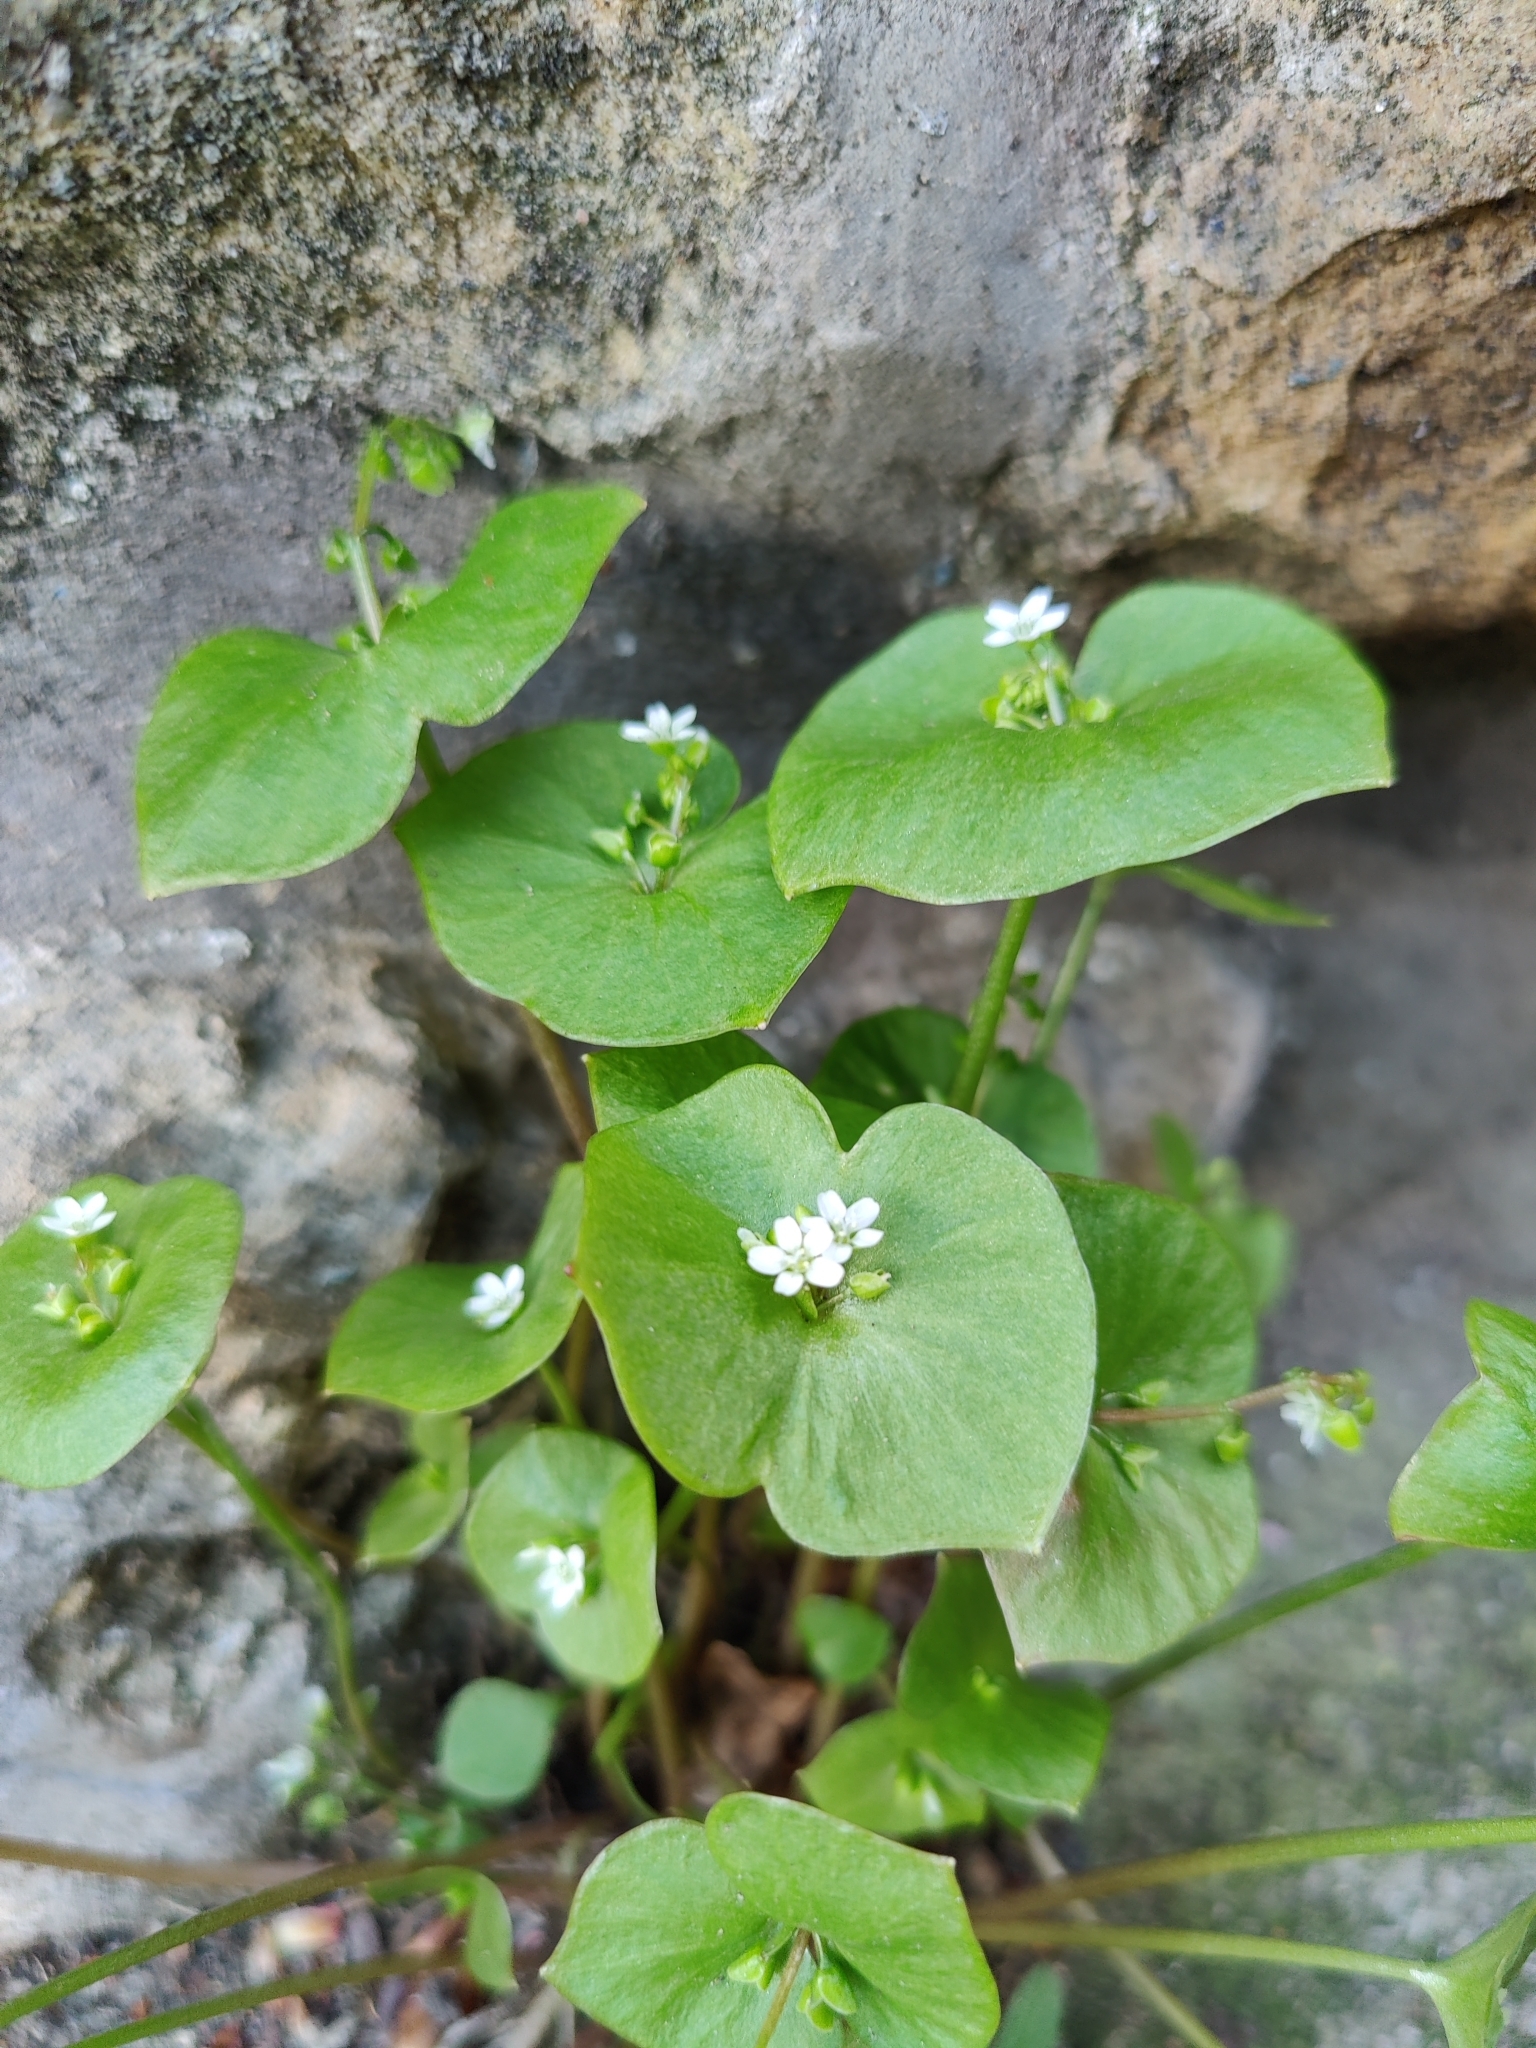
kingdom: Plantae
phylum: Tracheophyta
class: Magnoliopsida
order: Caryophyllales
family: Montiaceae
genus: Claytonia
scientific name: Claytonia perfoliata
